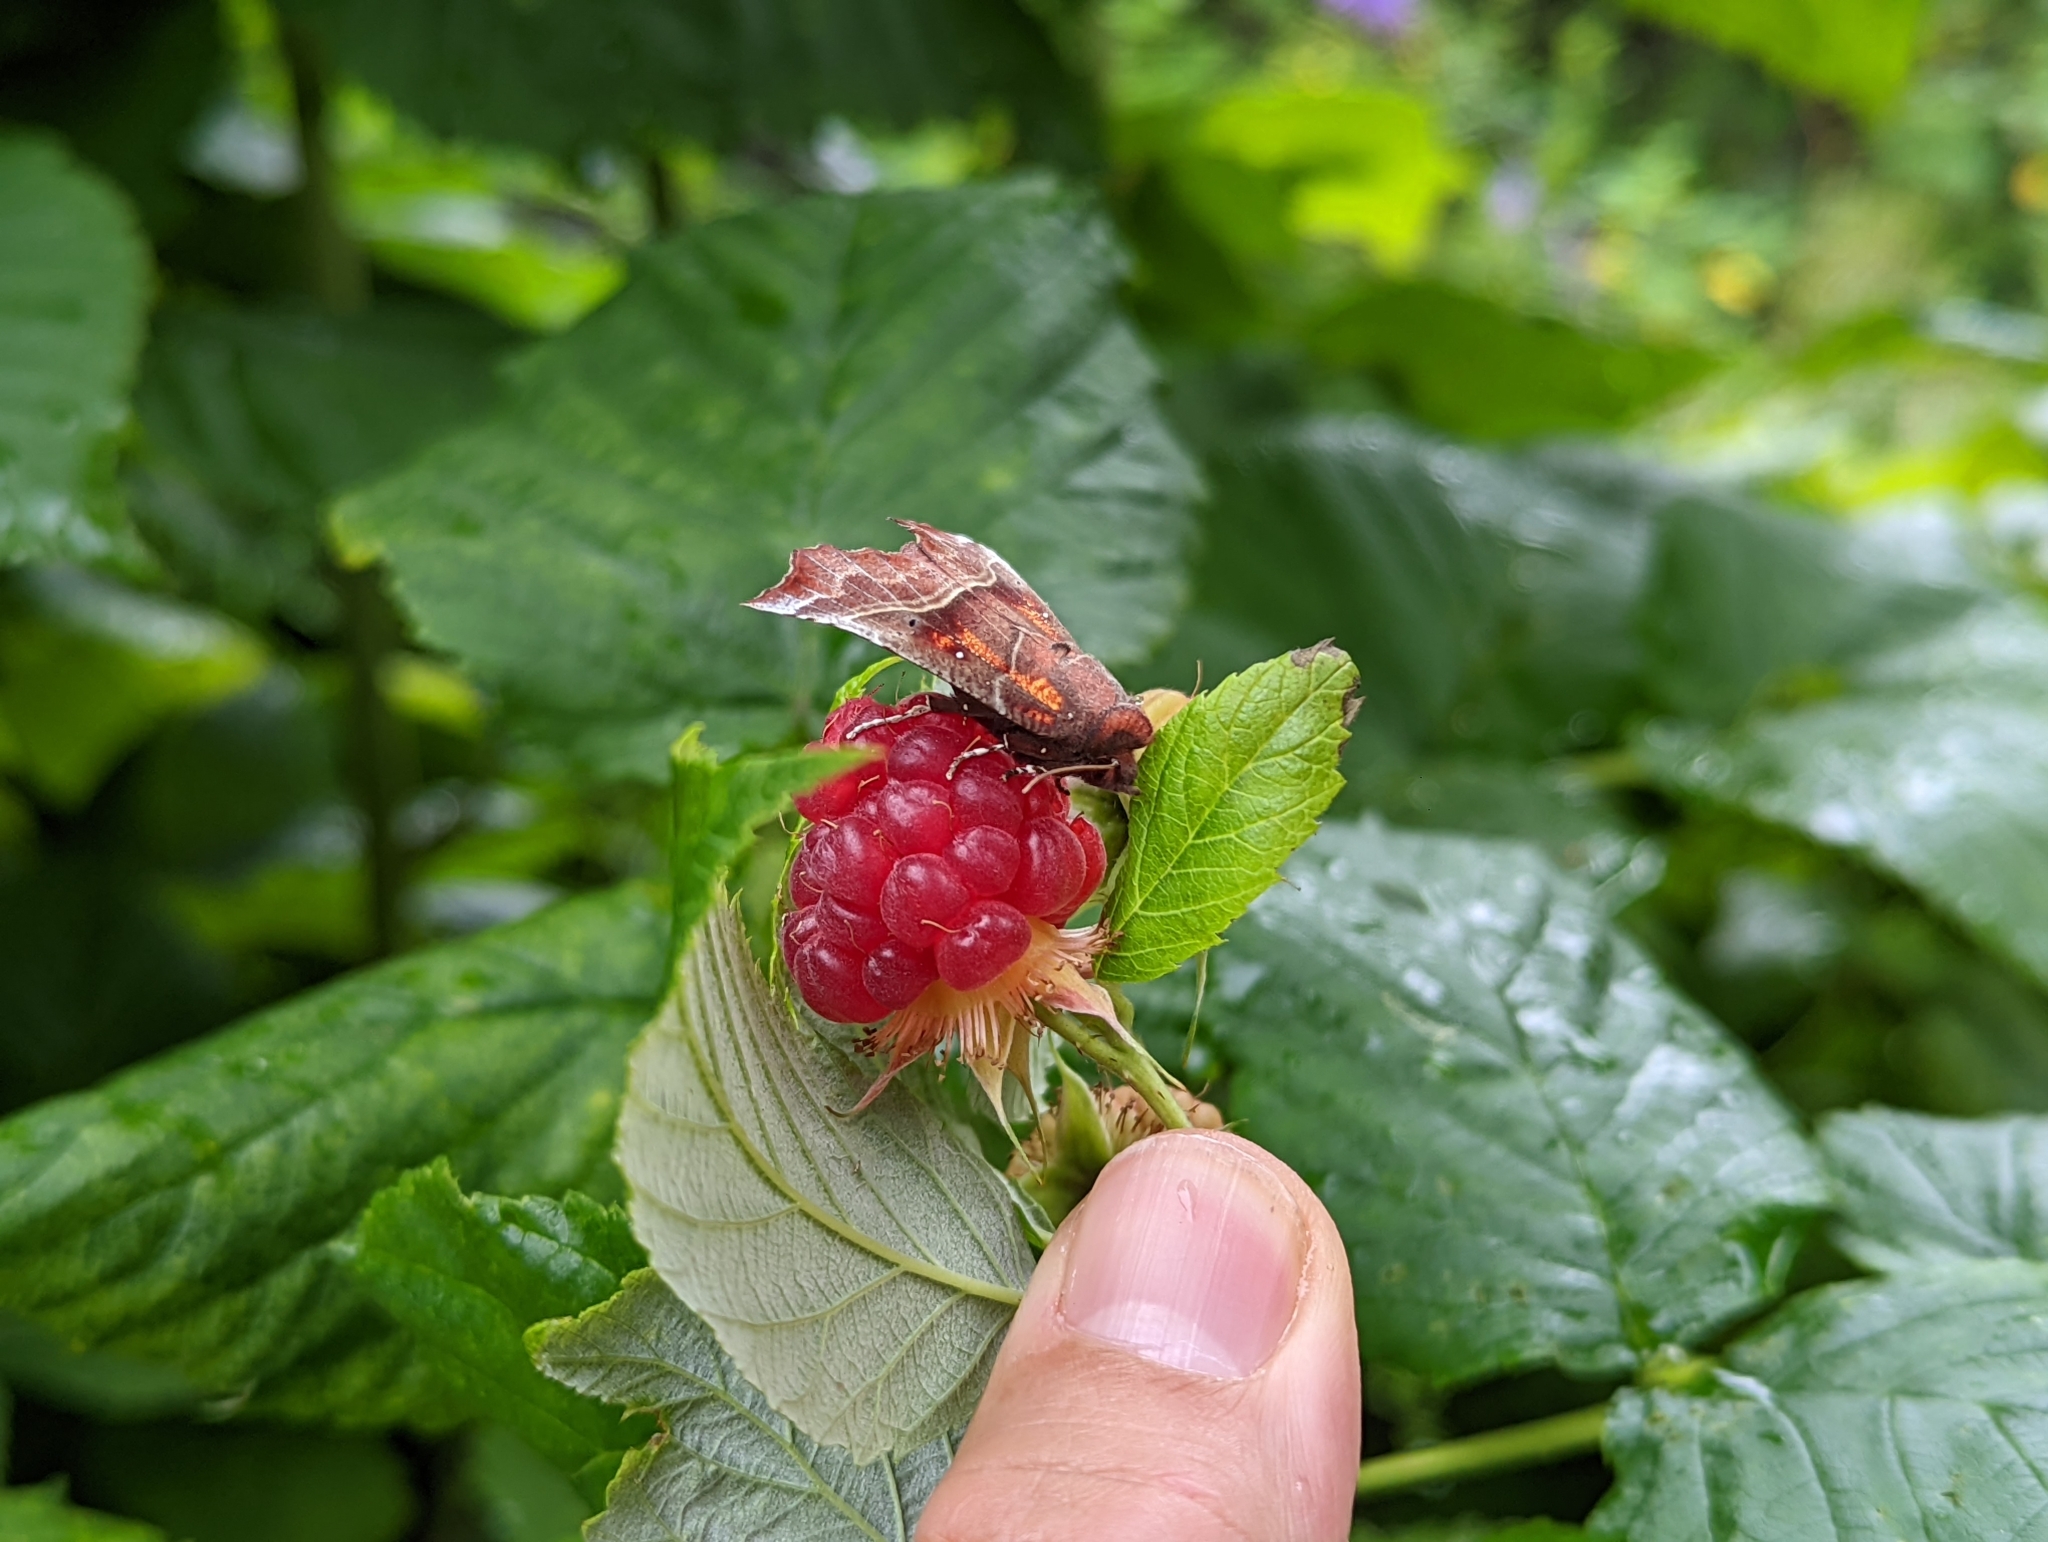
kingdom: Animalia
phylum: Arthropoda
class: Insecta
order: Lepidoptera
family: Erebidae
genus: Scoliopteryx
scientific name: Scoliopteryx libatrix
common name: Herald
